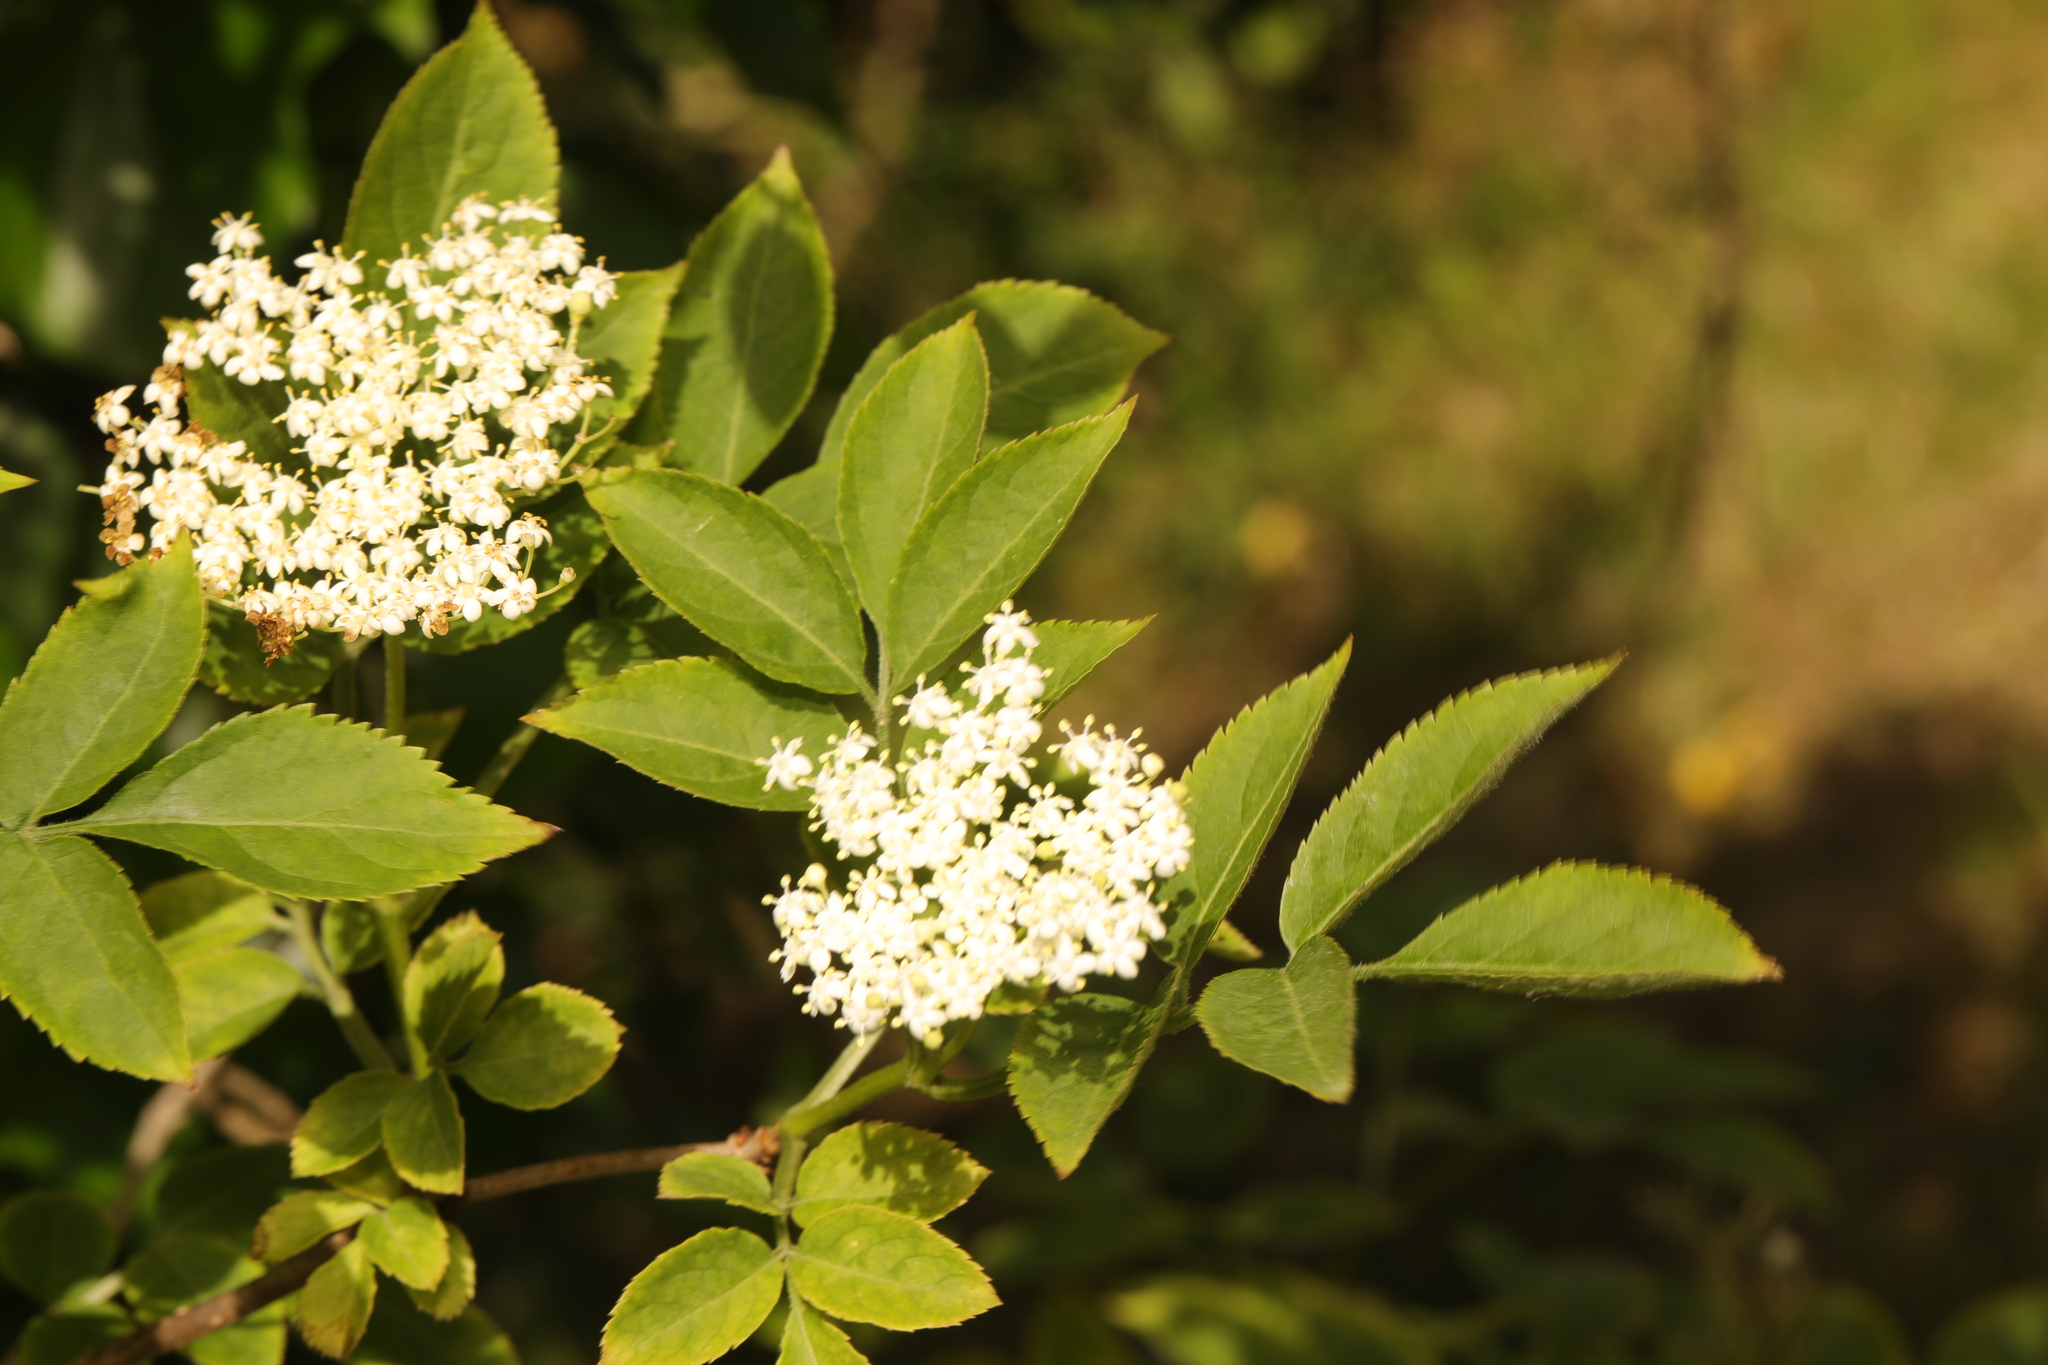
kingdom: Plantae
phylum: Tracheophyta
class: Magnoliopsida
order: Dipsacales
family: Viburnaceae
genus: Sambucus
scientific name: Sambucus nigra
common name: Elder
